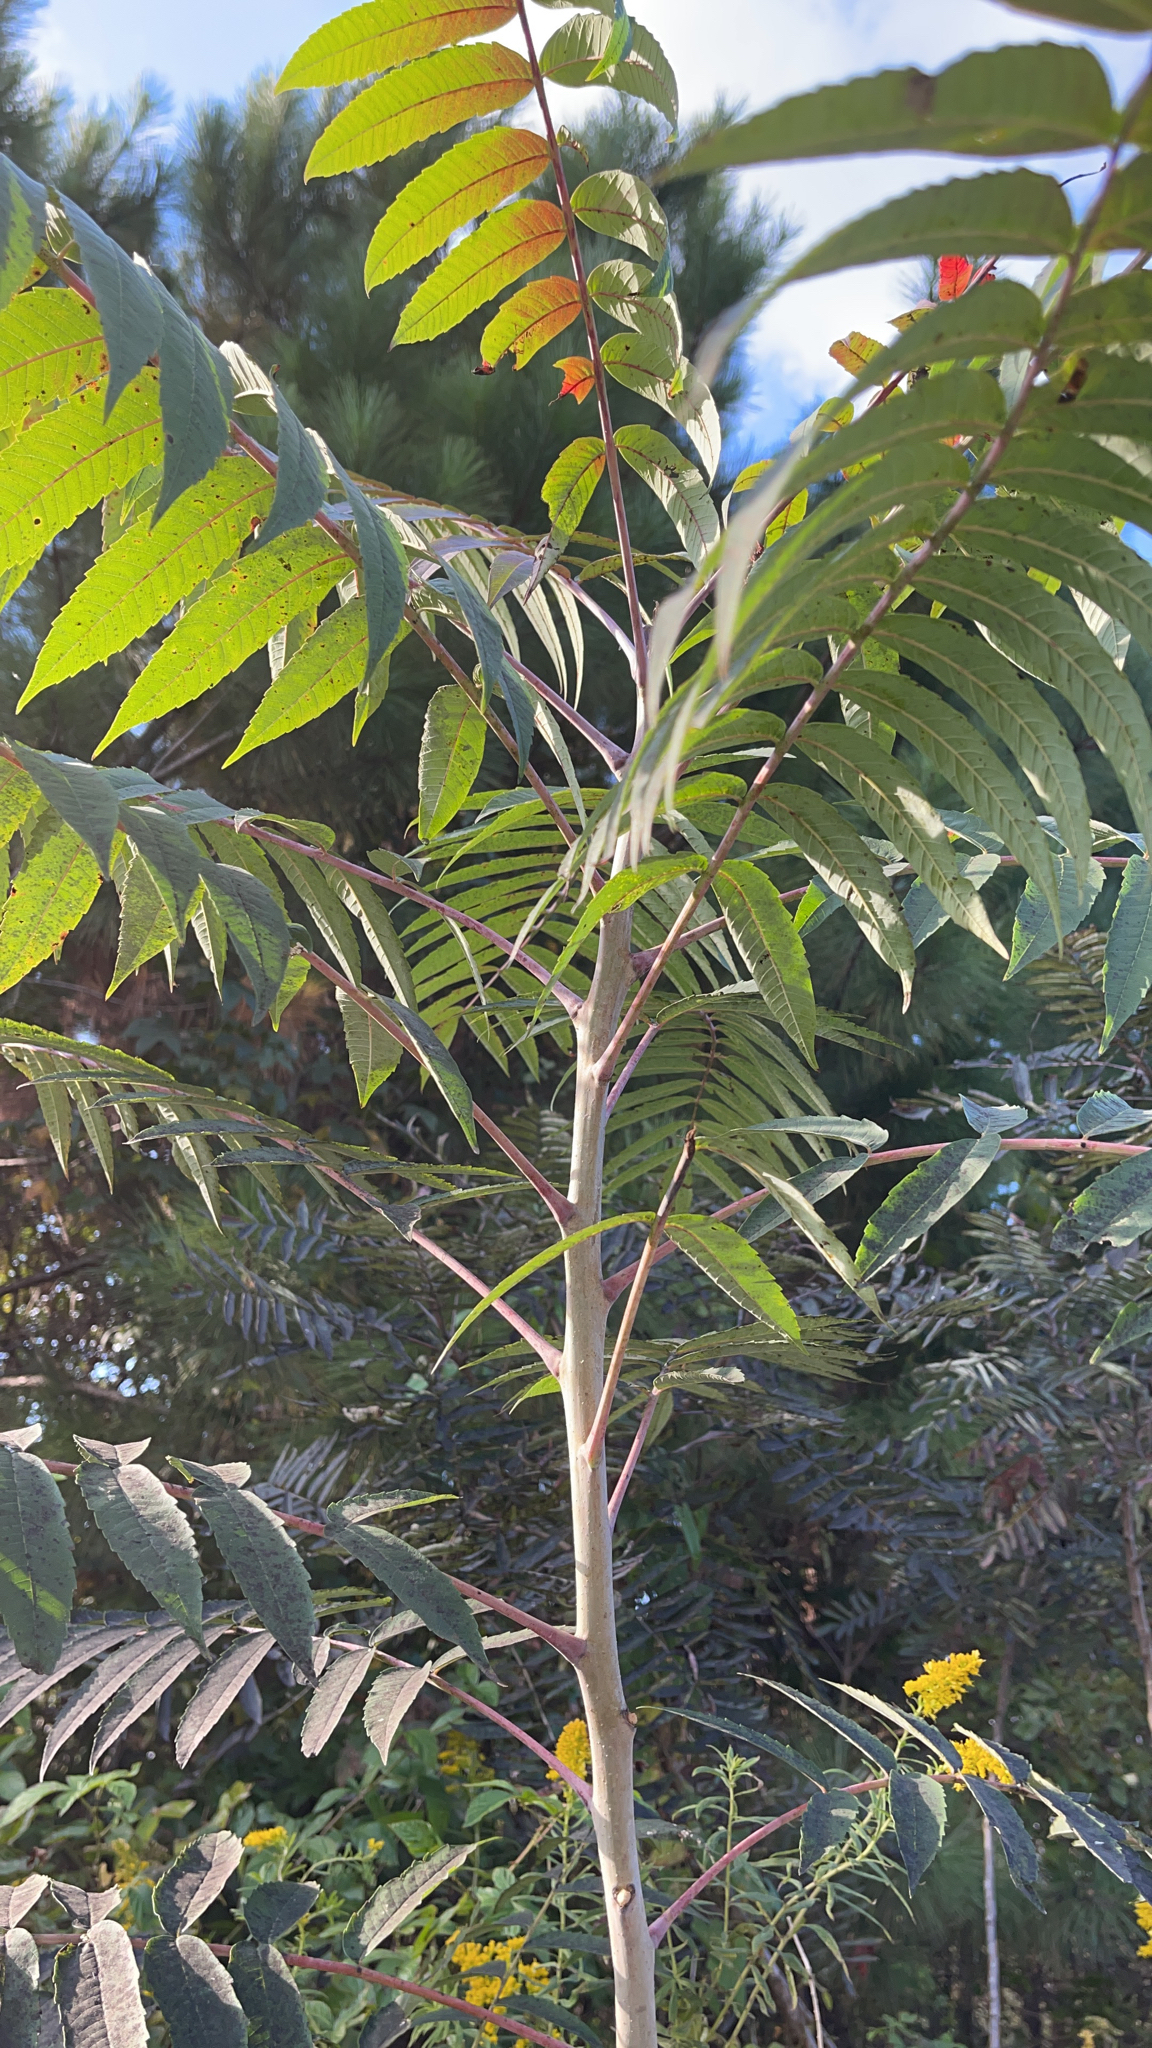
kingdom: Plantae
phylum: Tracheophyta
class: Magnoliopsida
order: Sapindales
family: Anacardiaceae
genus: Rhus
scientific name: Rhus glabra
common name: Scarlet sumac
